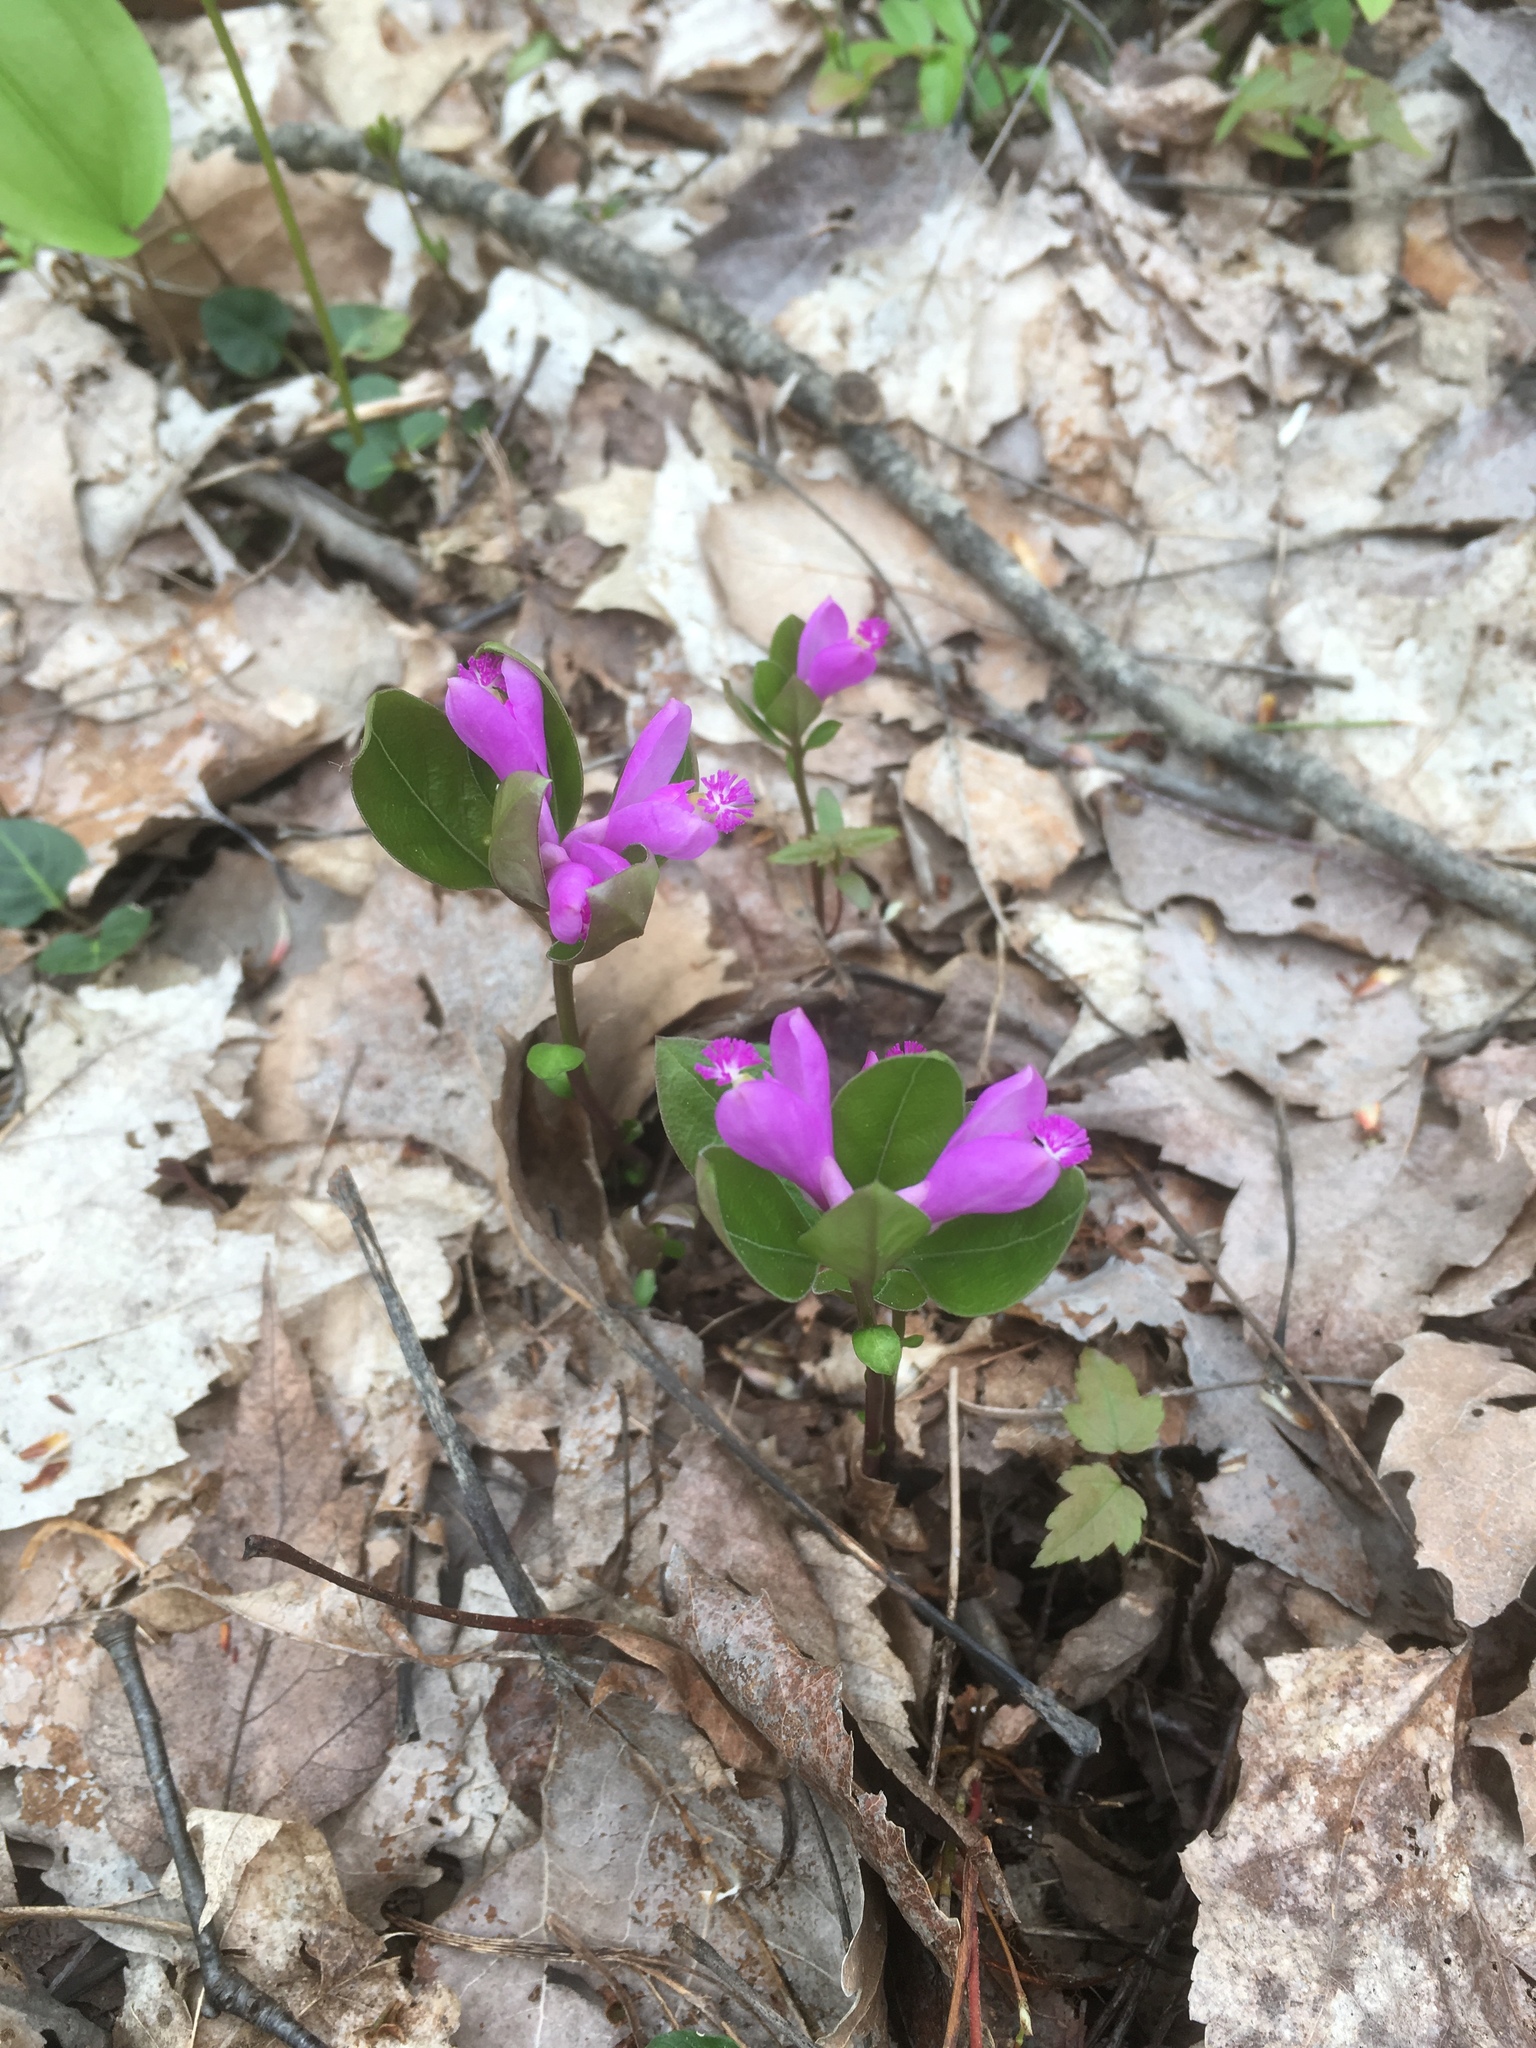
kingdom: Plantae
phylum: Tracheophyta
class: Magnoliopsida
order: Fabales
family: Polygalaceae
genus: Polygaloides
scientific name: Polygaloides paucifolia
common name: Bird-on-the-wing
